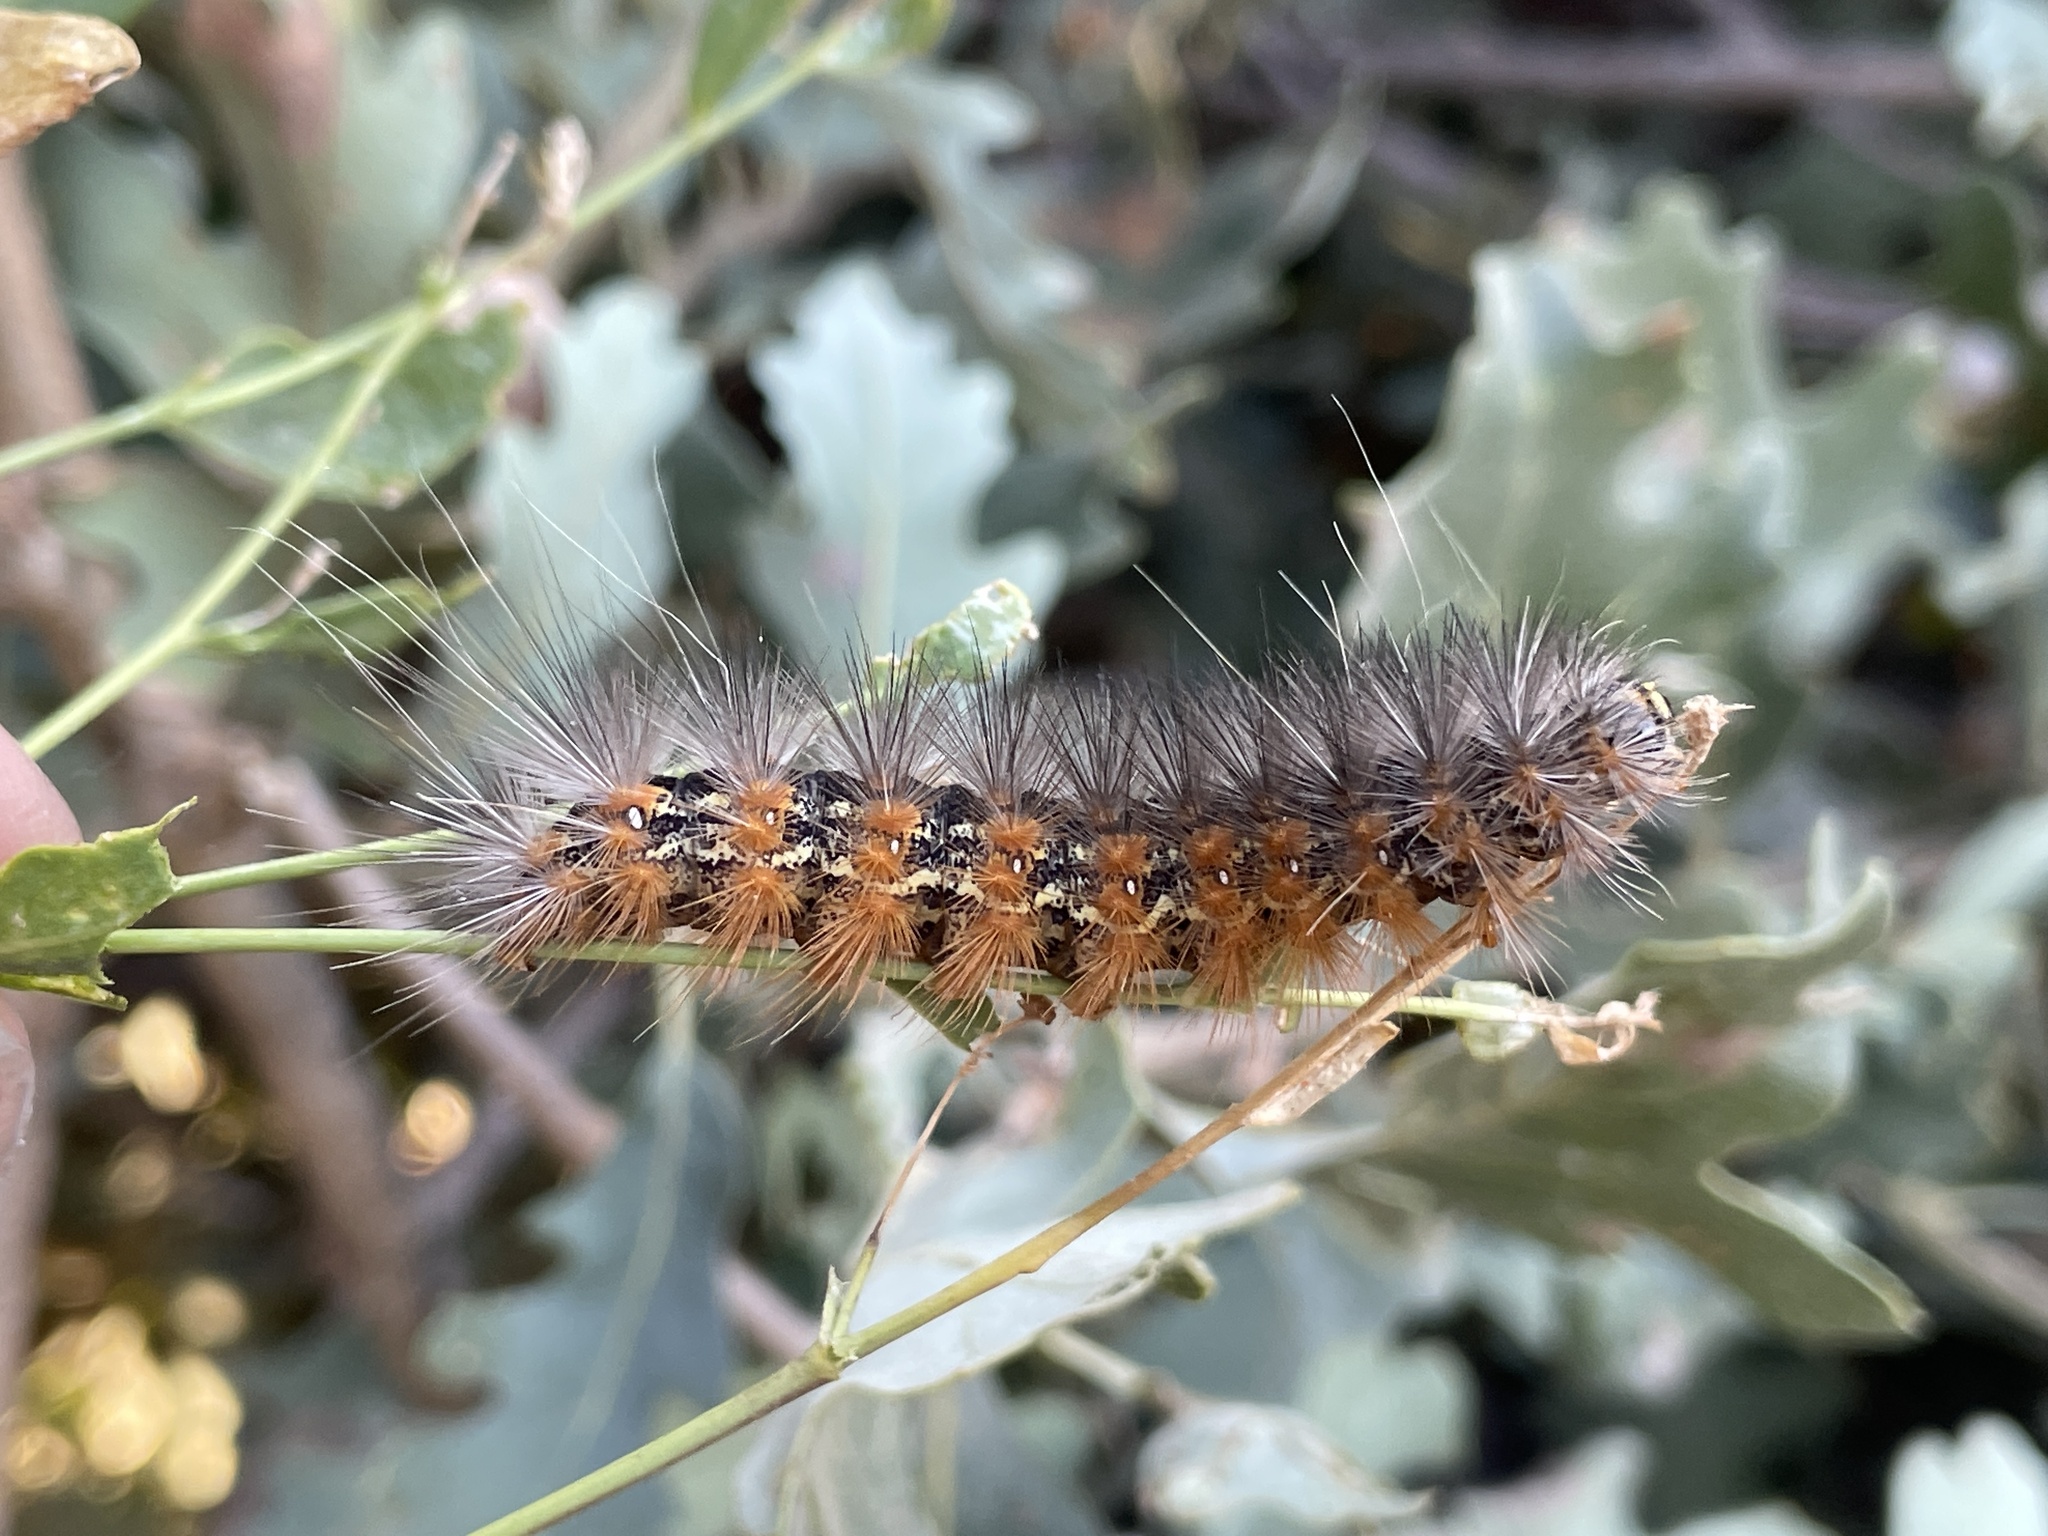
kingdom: Animalia
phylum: Arthropoda
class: Insecta
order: Lepidoptera
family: Erebidae
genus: Estigmene
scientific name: Estigmene acrea
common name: Salt marsh moth
